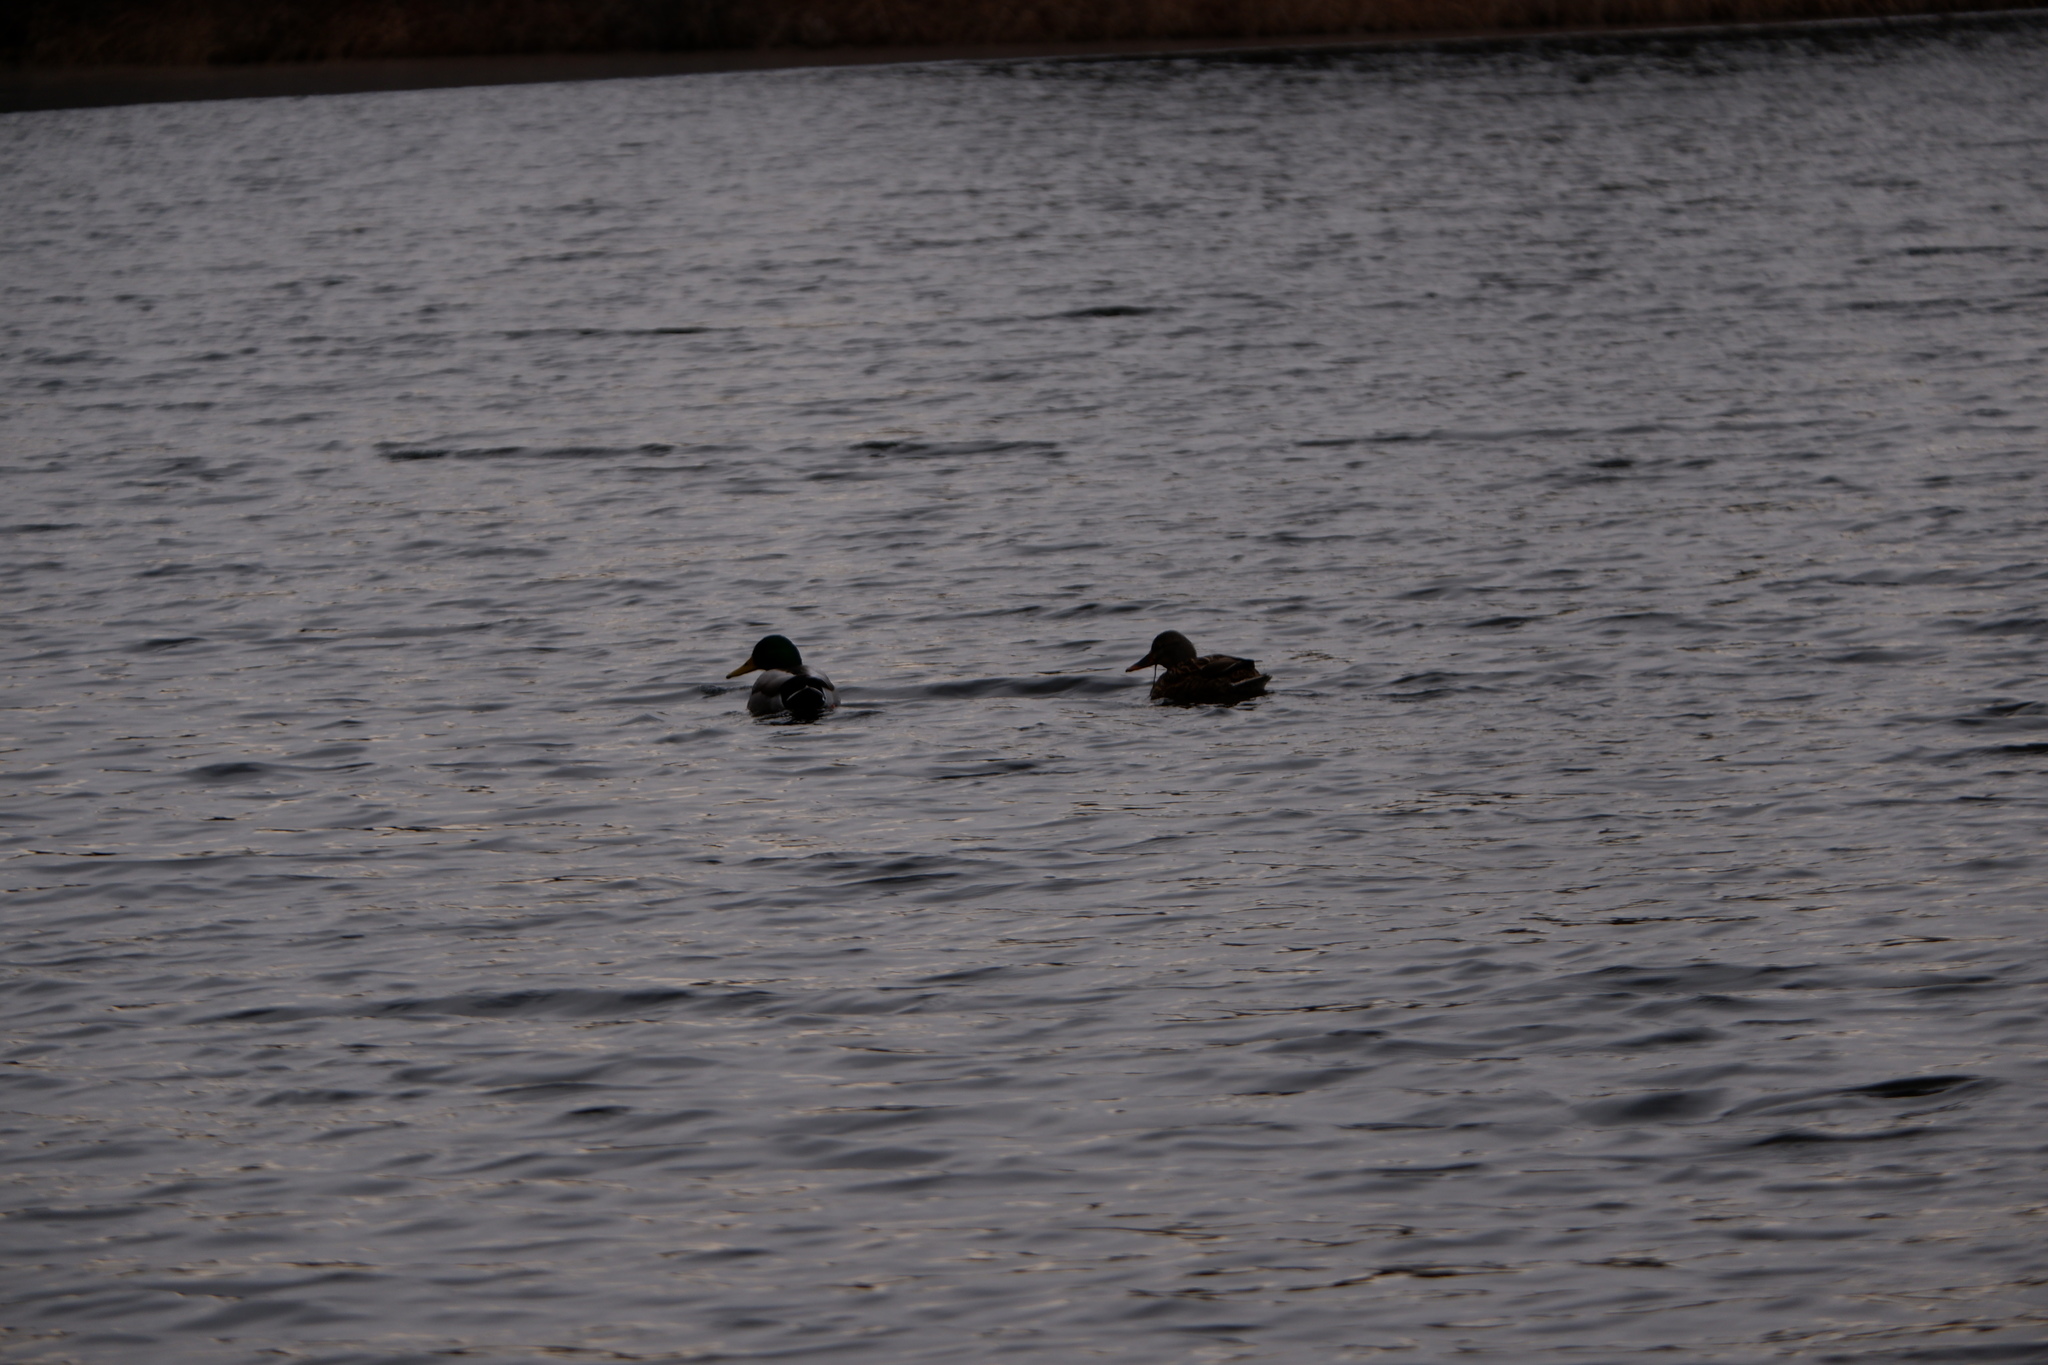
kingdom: Animalia
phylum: Chordata
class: Aves
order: Anseriformes
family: Anatidae
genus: Anas
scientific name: Anas platyrhynchos
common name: Mallard
